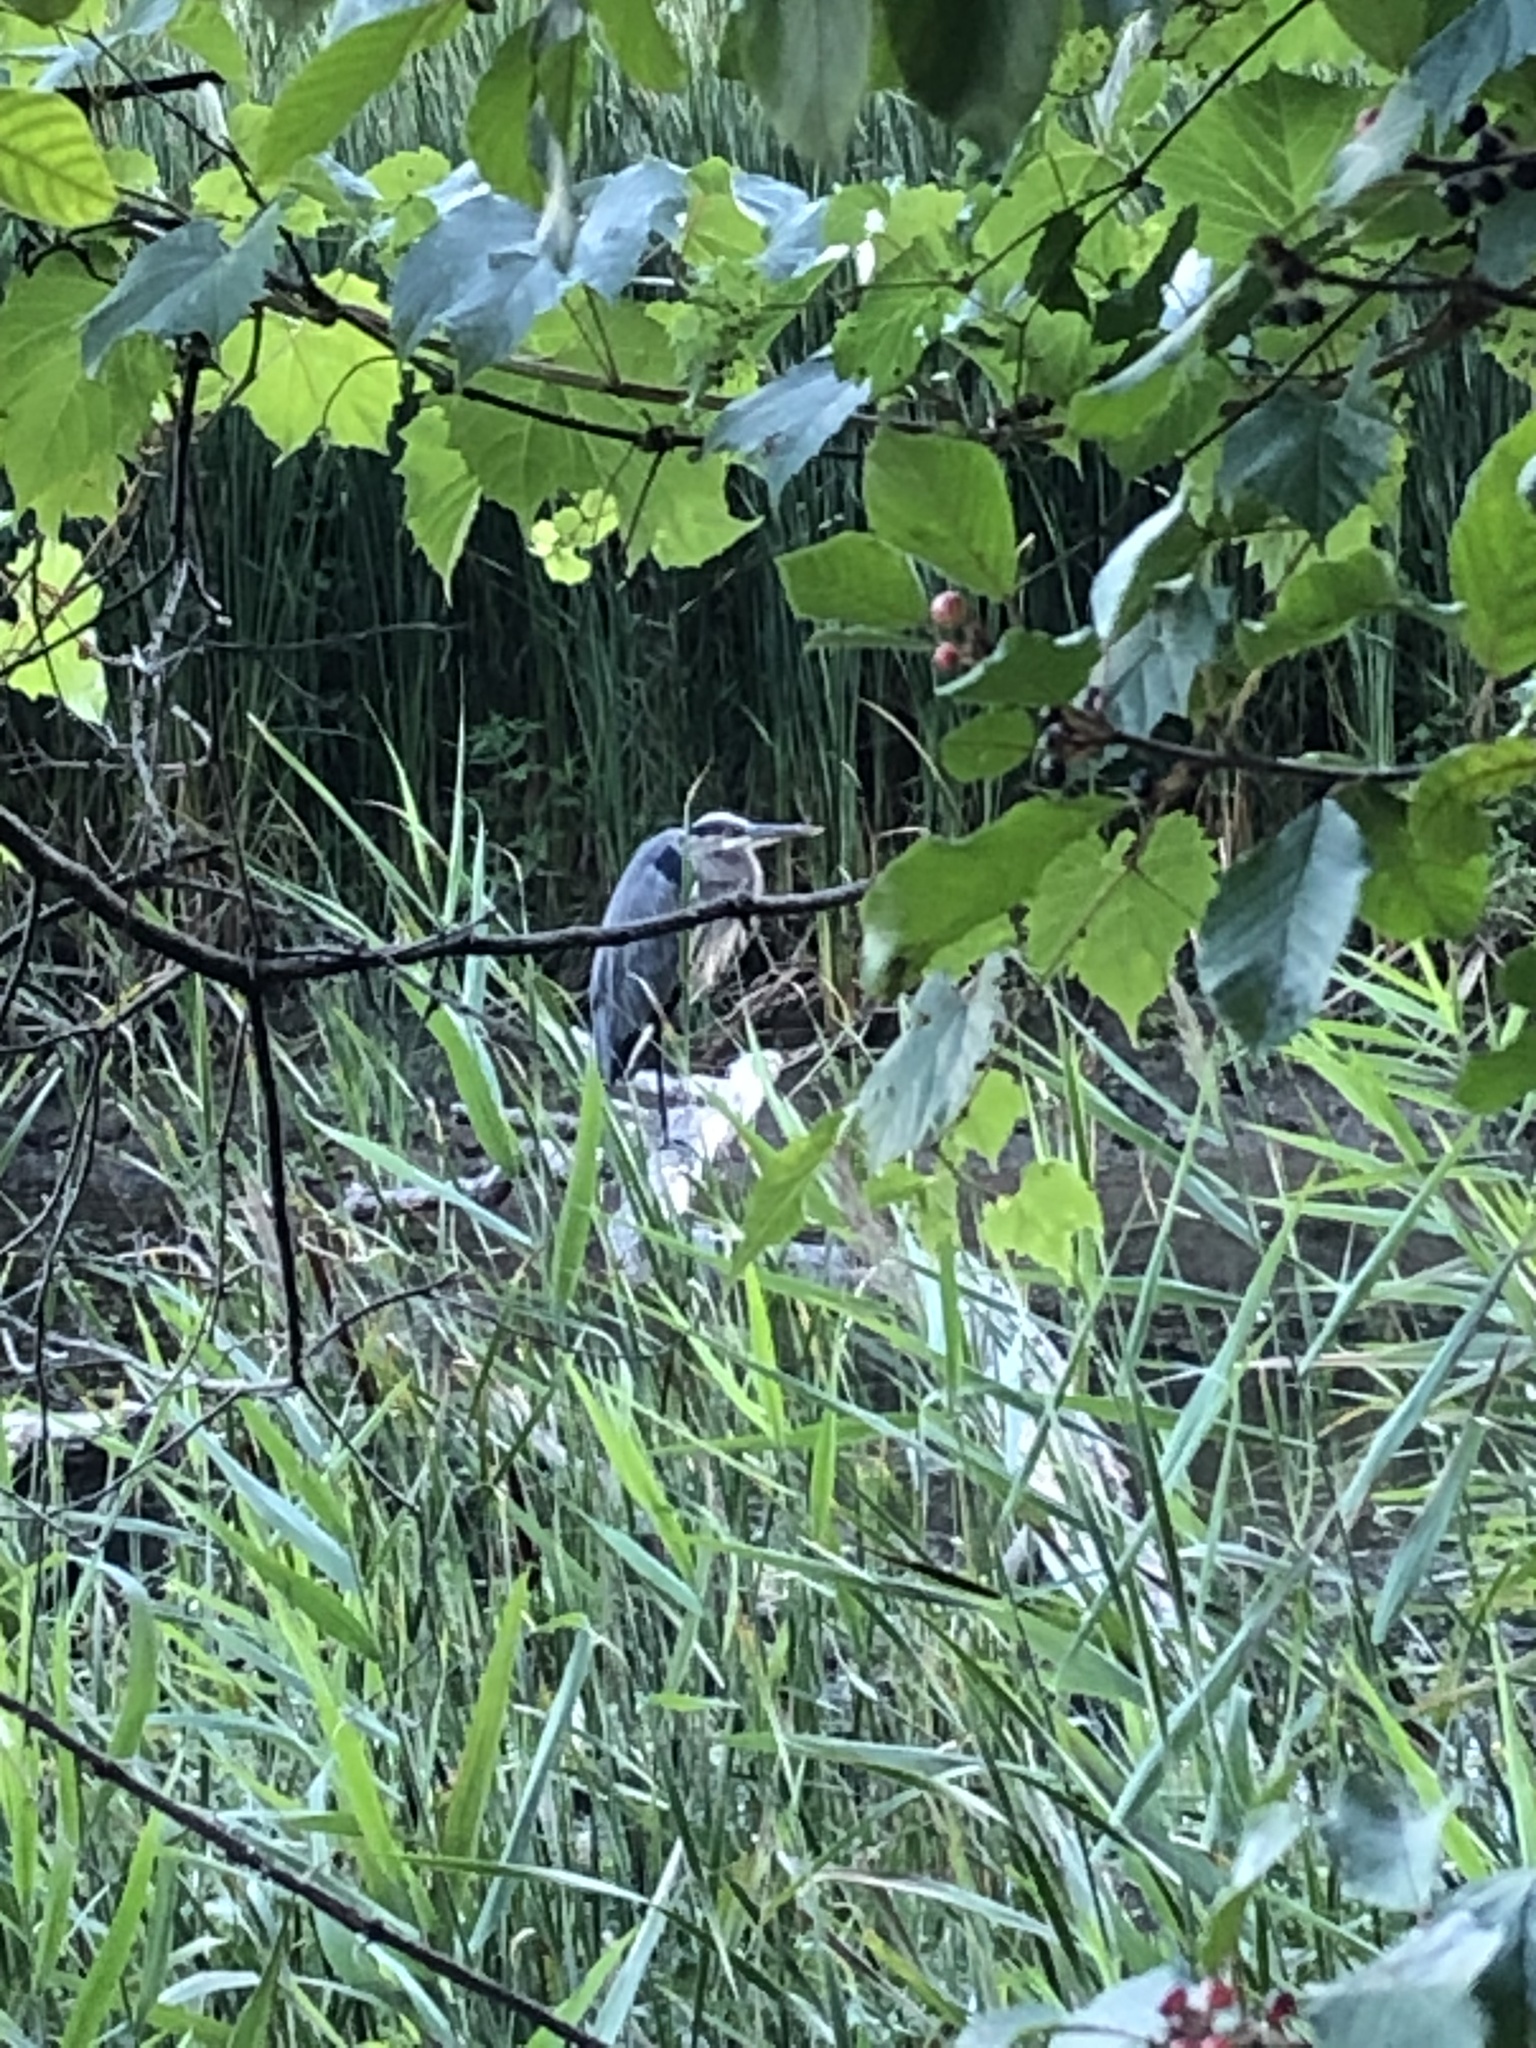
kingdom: Animalia
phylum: Chordata
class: Aves
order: Pelecaniformes
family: Ardeidae
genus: Ardea
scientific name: Ardea herodias
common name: Great blue heron
